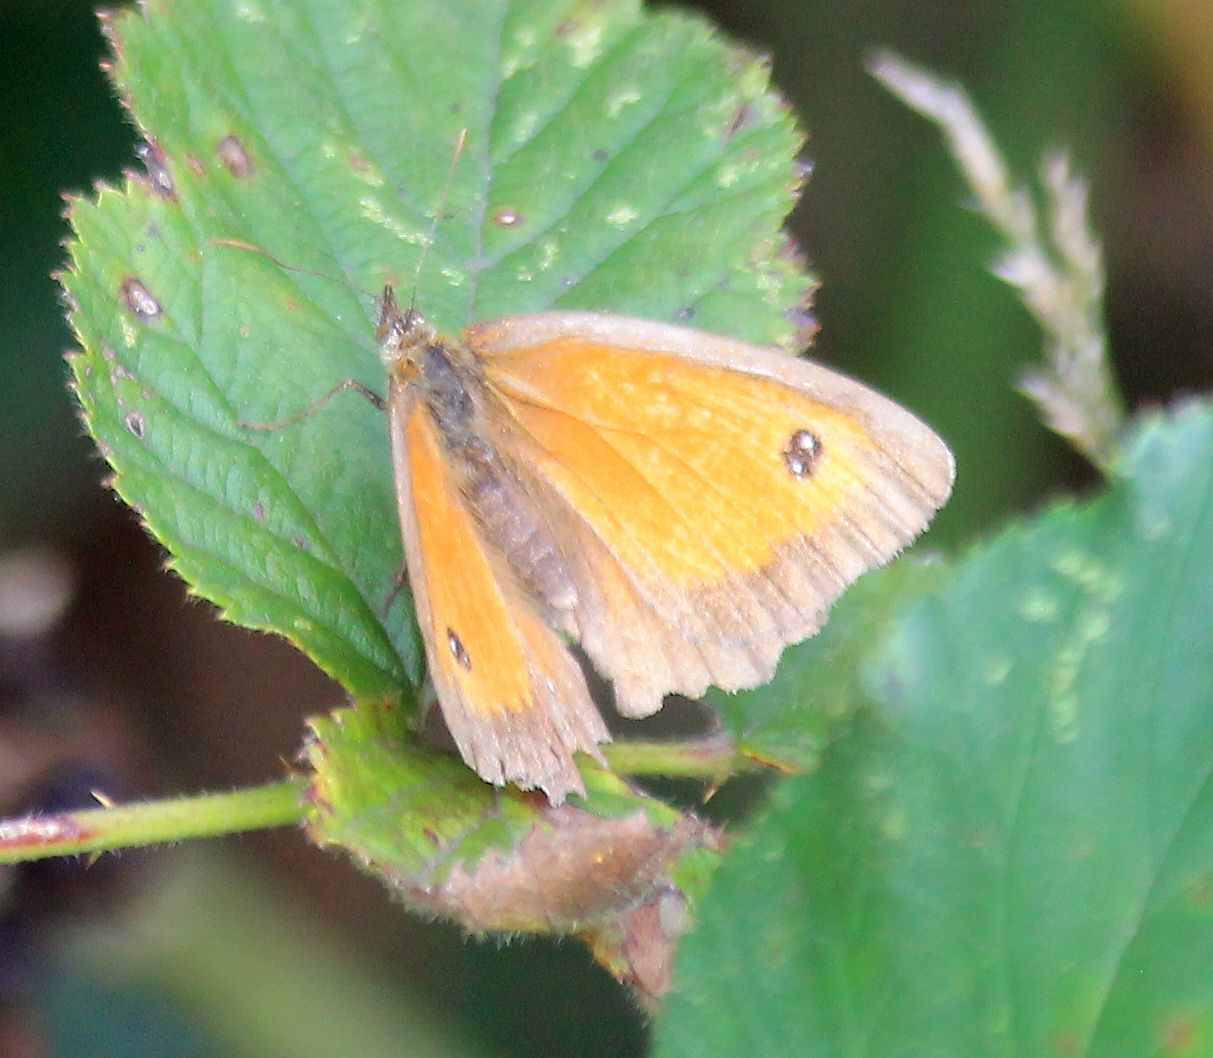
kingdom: Animalia
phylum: Arthropoda
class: Insecta
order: Lepidoptera
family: Nymphalidae
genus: Pyronia
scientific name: Pyronia tithonus
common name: Gatekeeper
